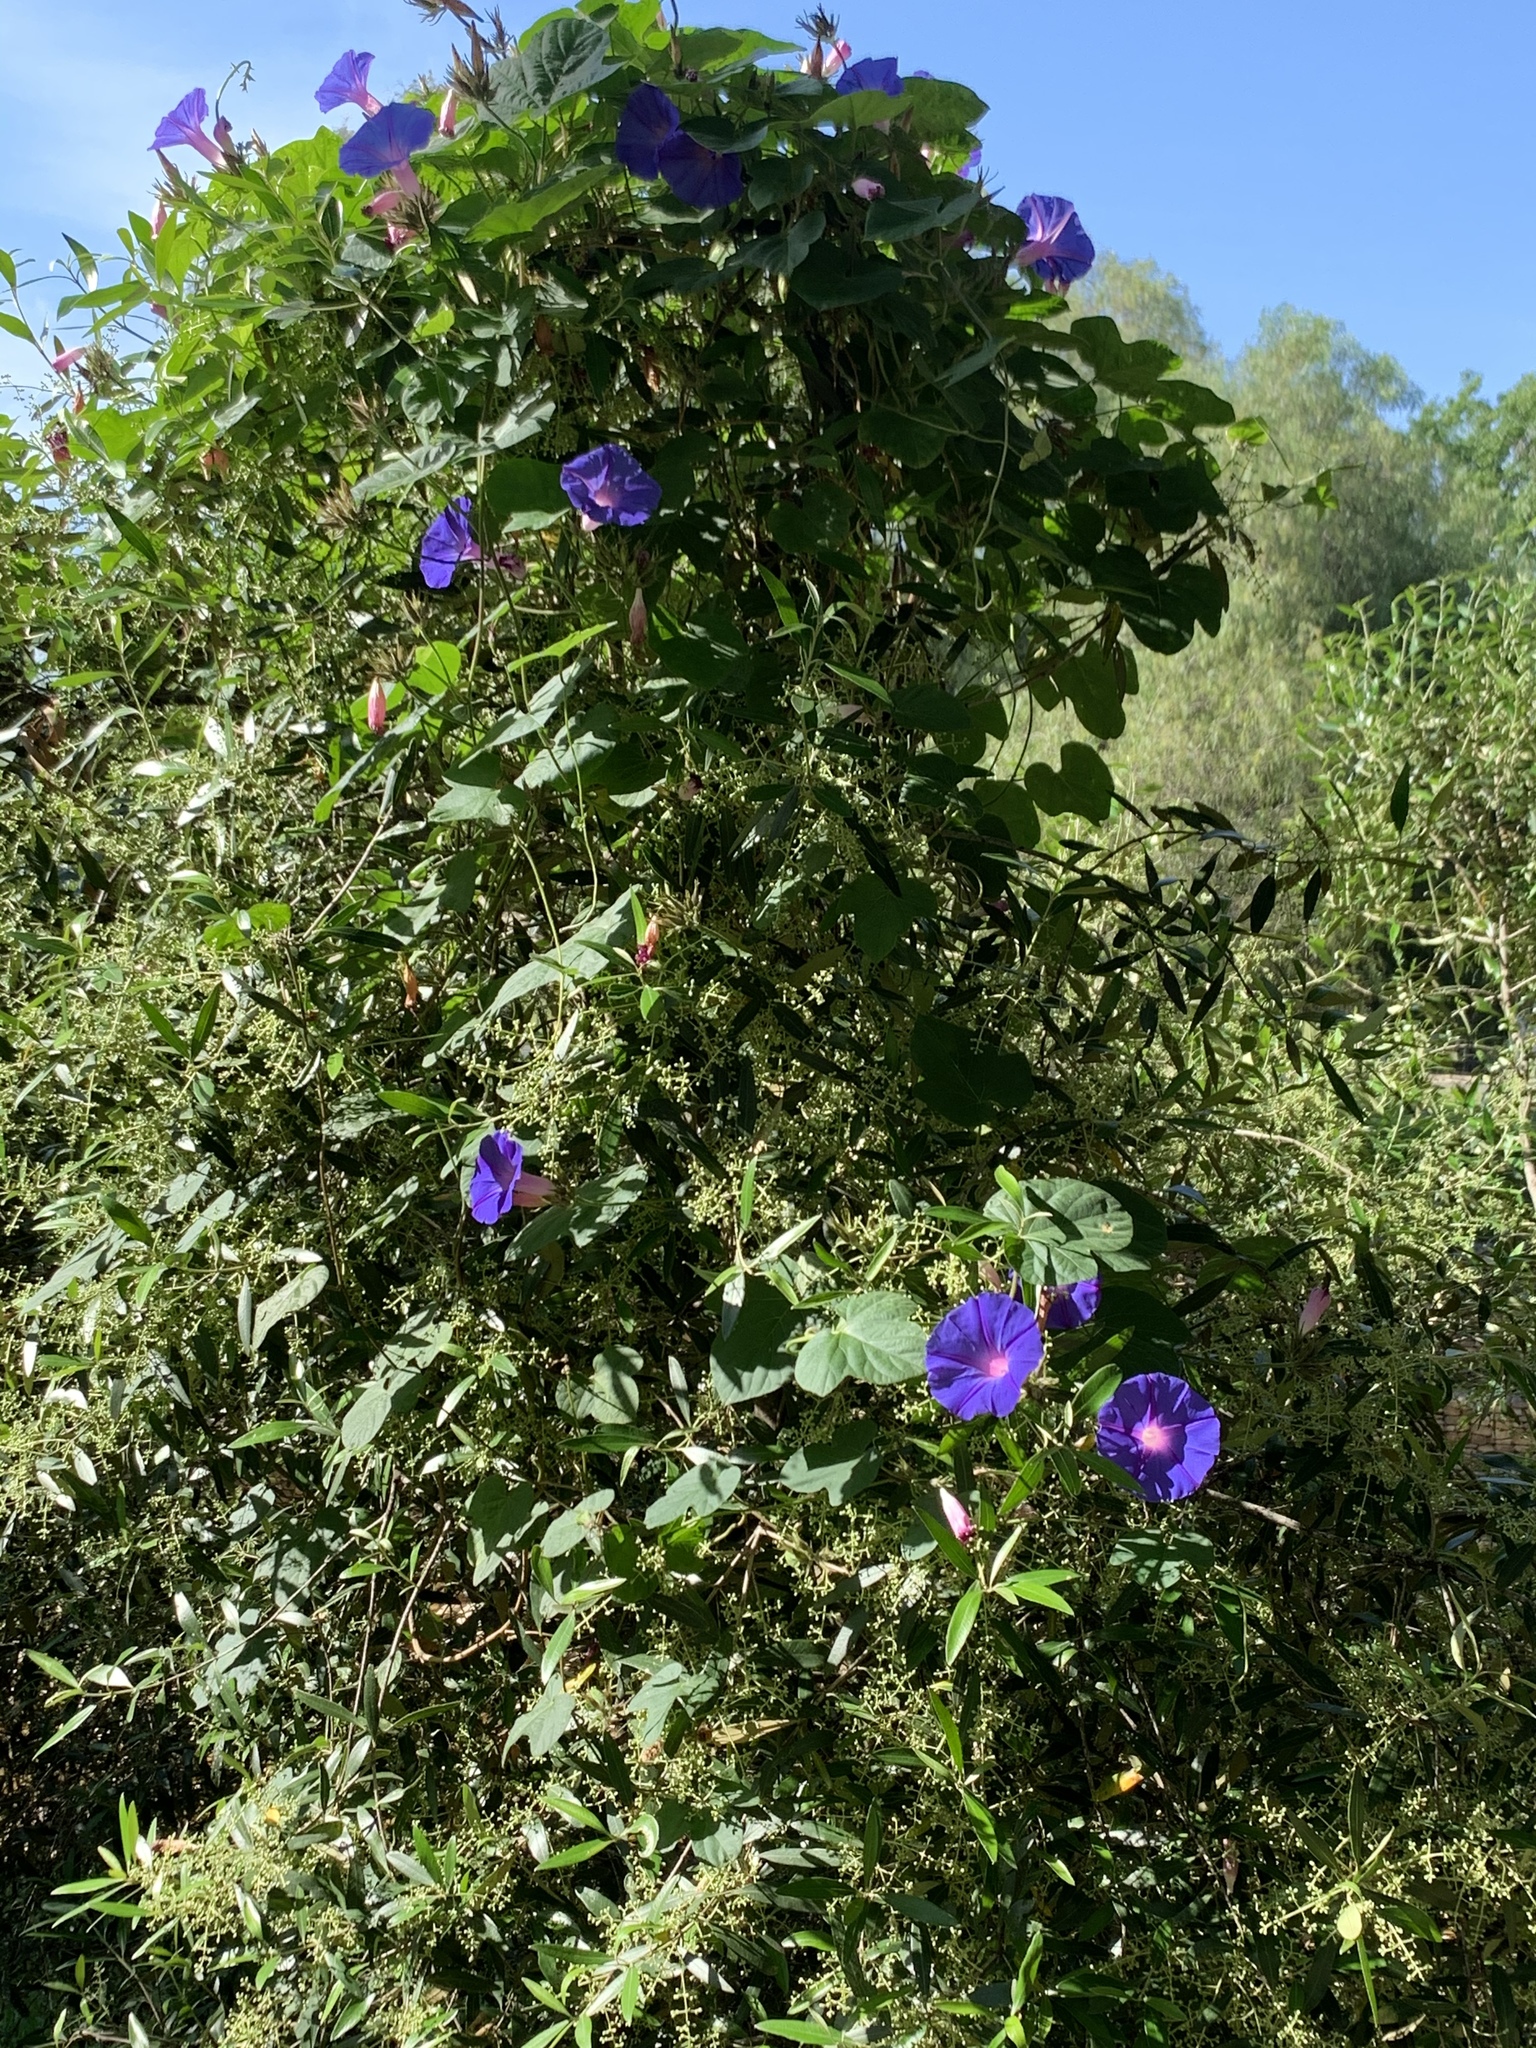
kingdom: Plantae
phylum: Tracheophyta
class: Magnoliopsida
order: Solanales
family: Convolvulaceae
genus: Ipomoea
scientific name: Ipomoea indica
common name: Blue dawnflower
